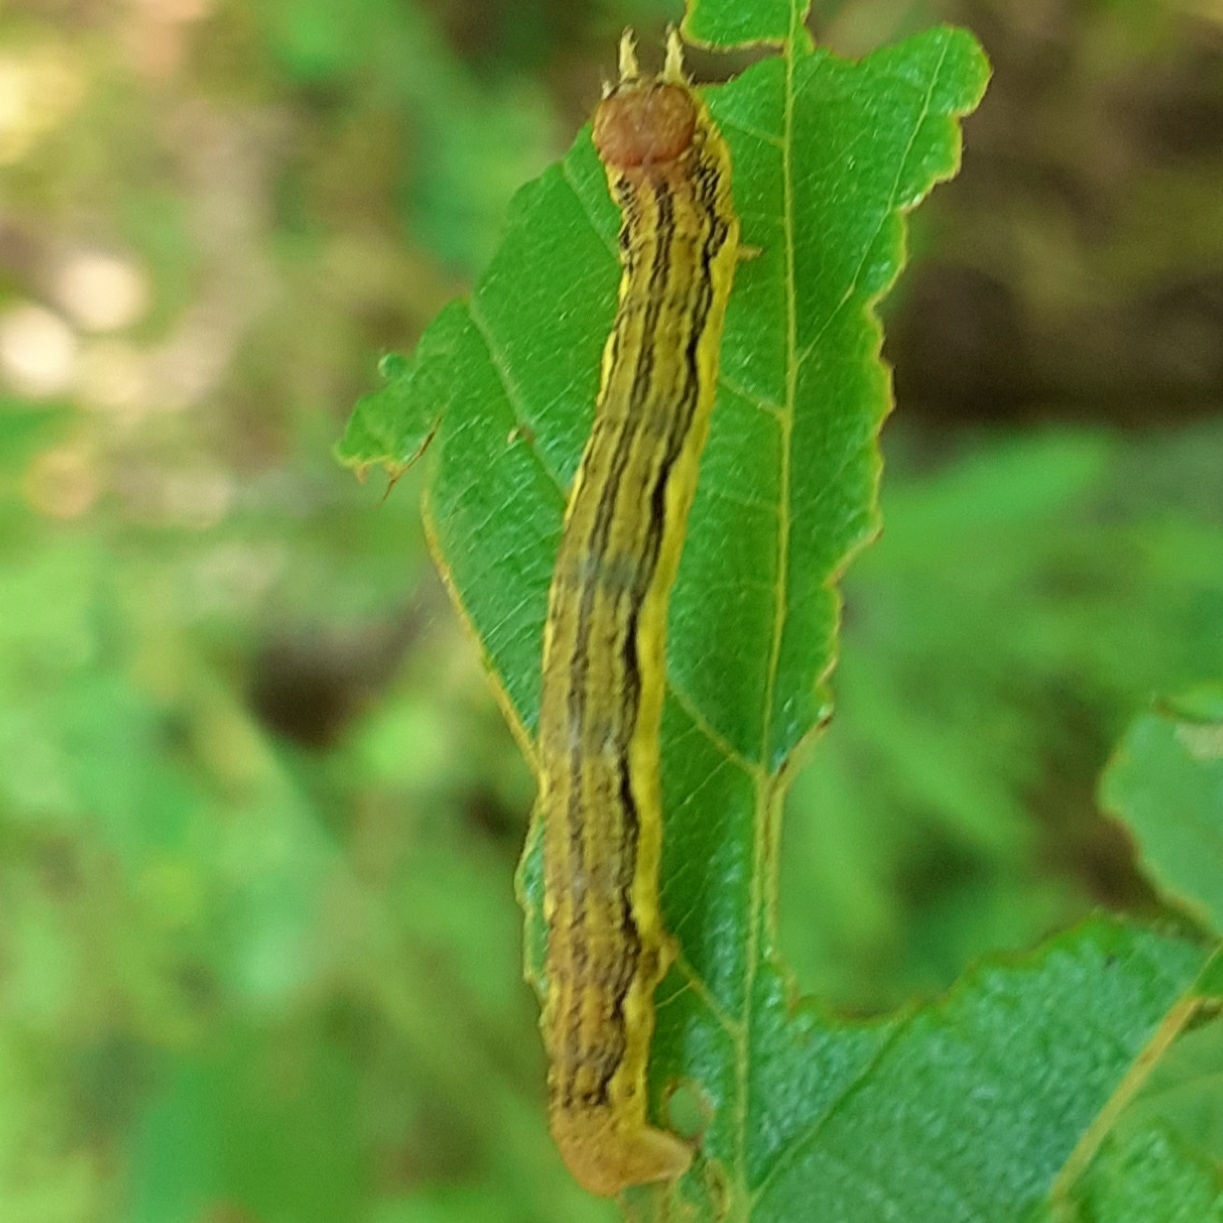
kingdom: Animalia
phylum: Arthropoda
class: Insecta
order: Lepidoptera
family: Geometridae
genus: Erannis
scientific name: Erannis defoliaria
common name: Mottled umber
